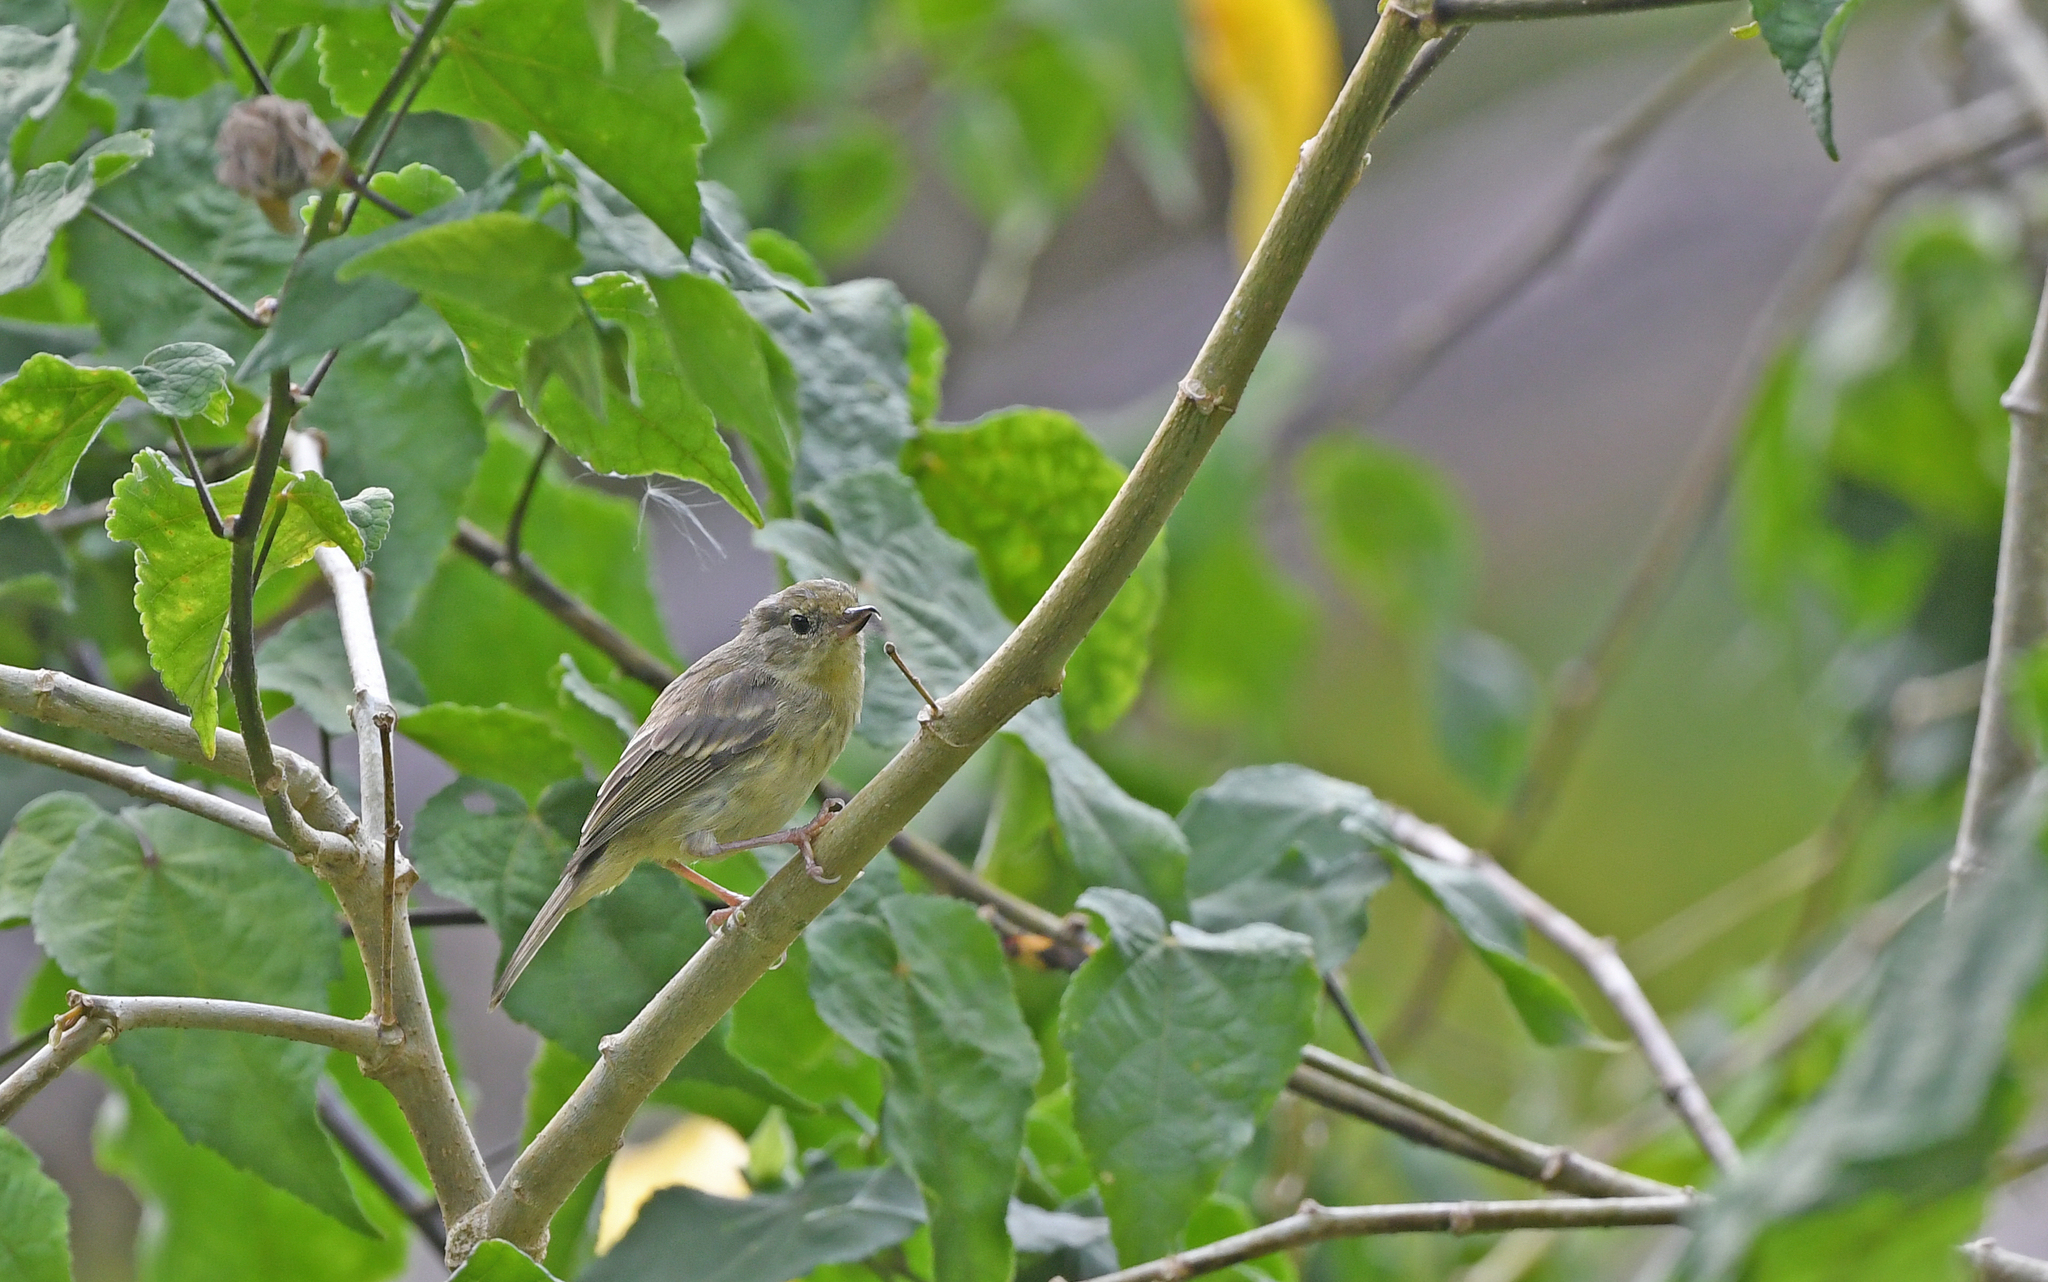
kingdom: Animalia
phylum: Chordata
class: Aves
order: Passeriformes
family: Thraupidae
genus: Diglossa
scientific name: Diglossa sittoides
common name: Rusty flowerpiercer
